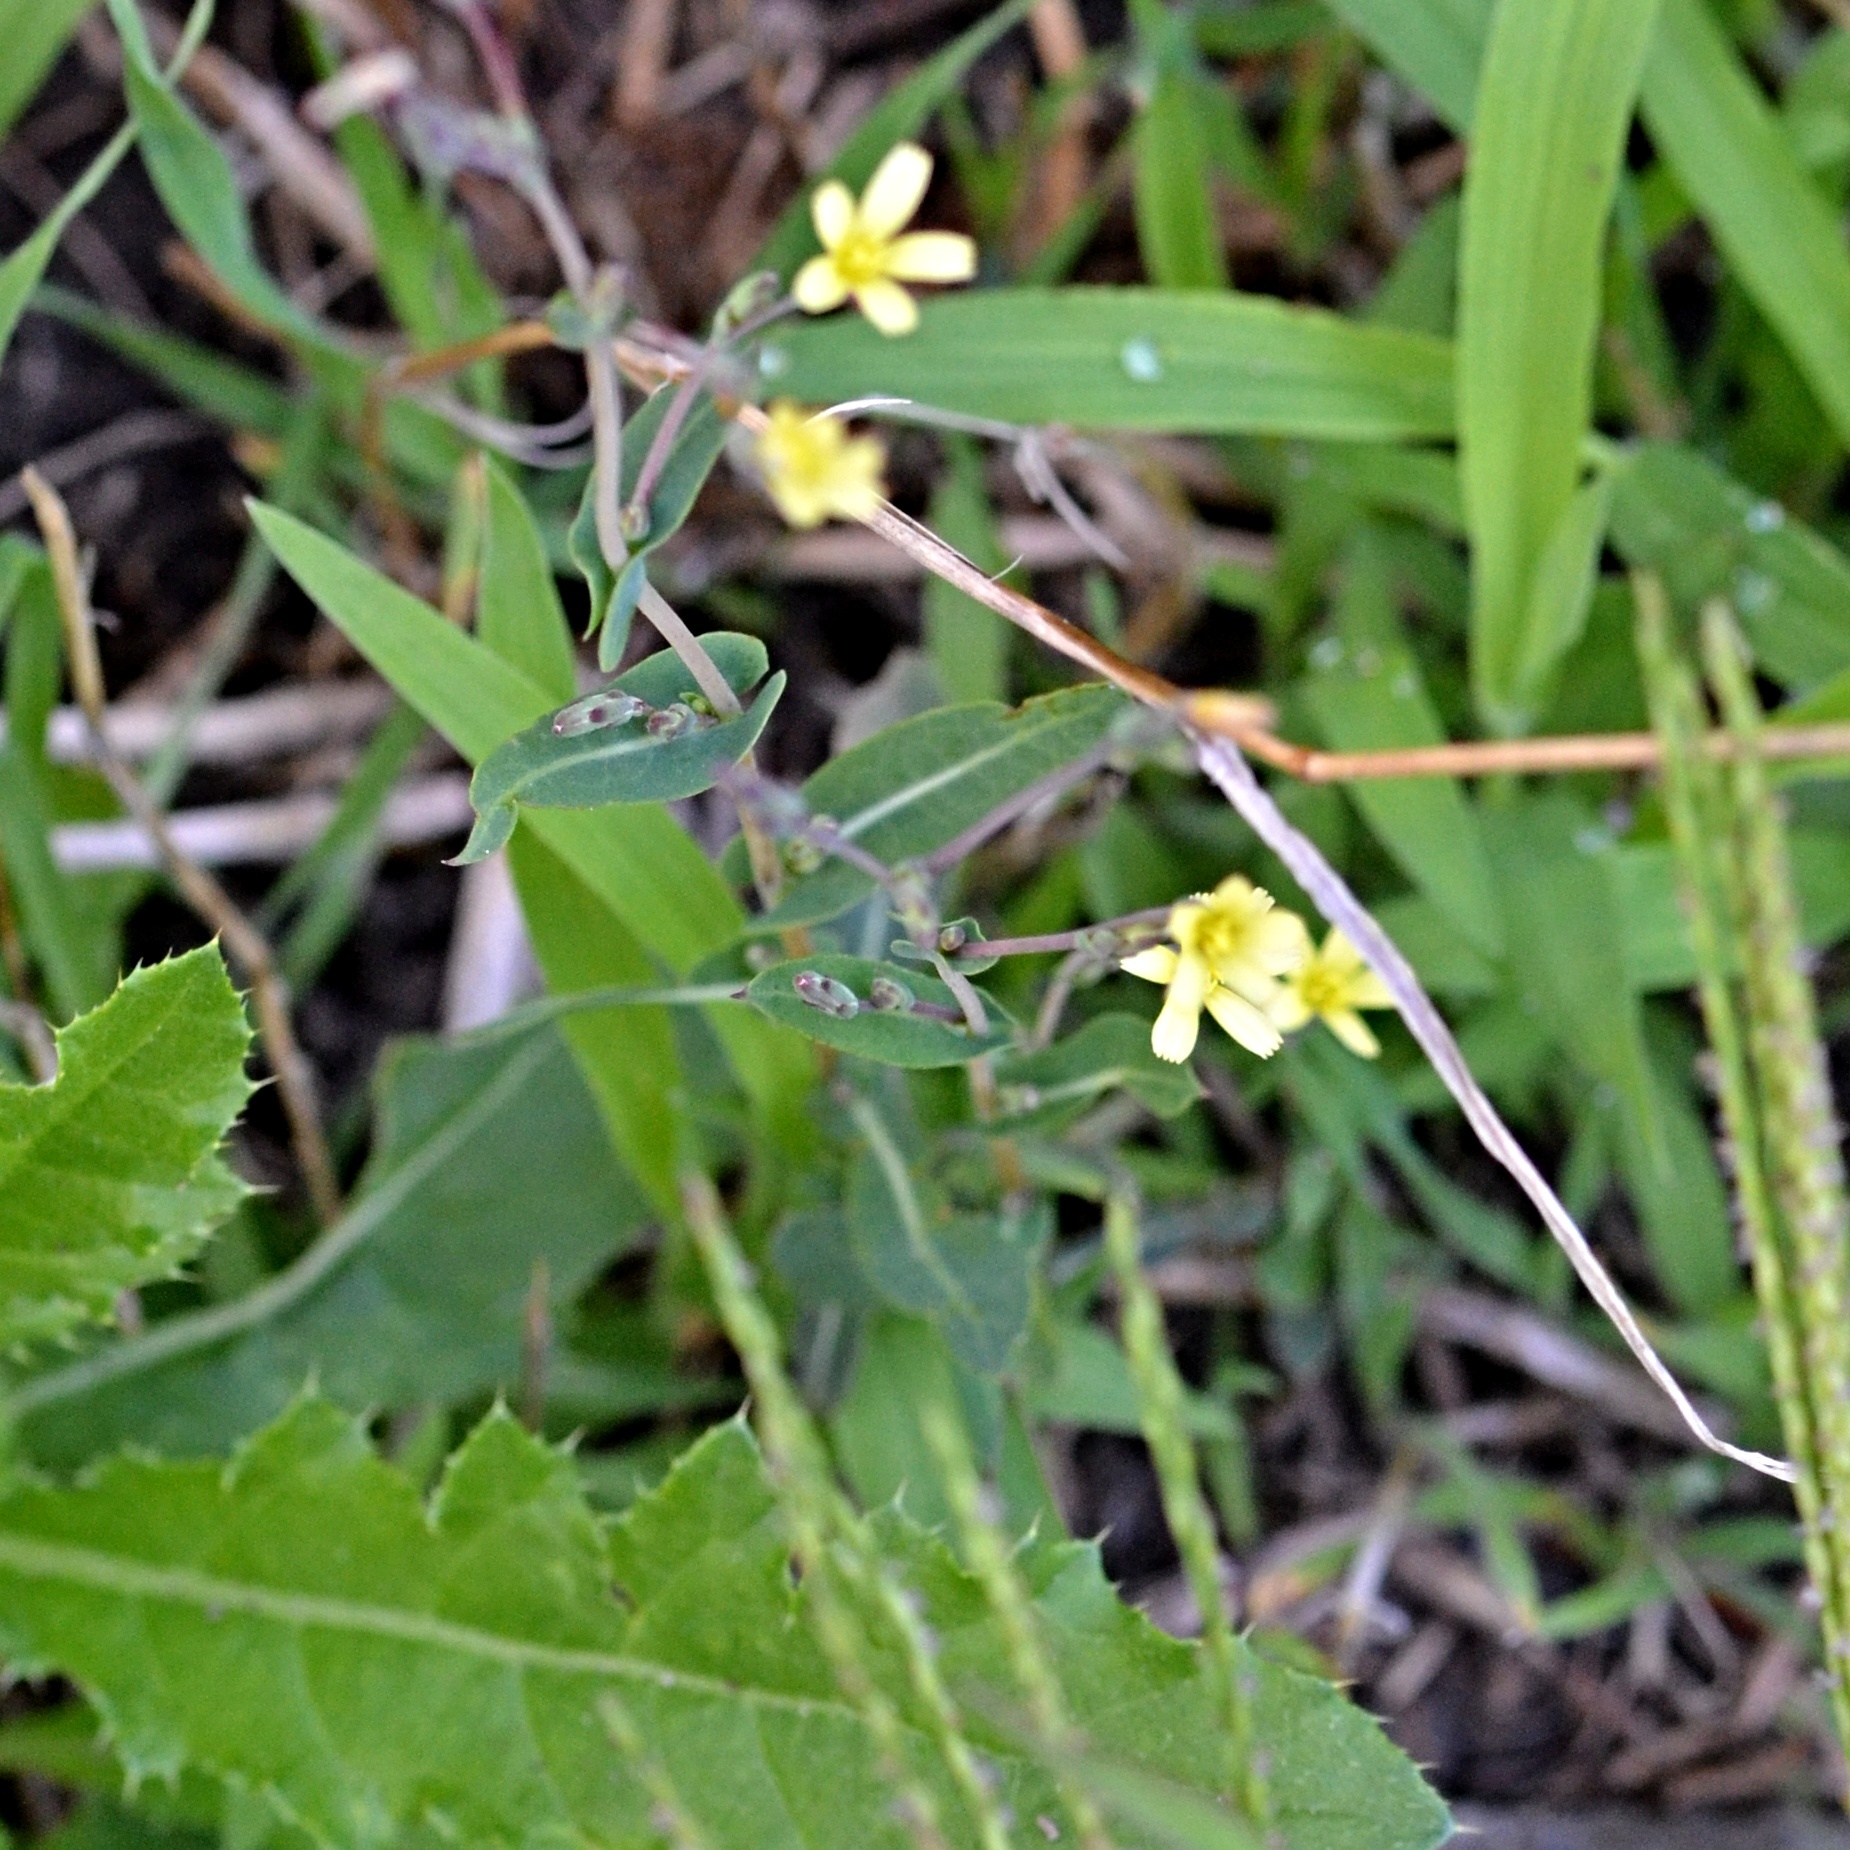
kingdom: Plantae
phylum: Tracheophyta
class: Magnoliopsida
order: Asterales
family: Asteraceae
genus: Lactuca
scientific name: Lactuca serriola
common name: Prickly lettuce
